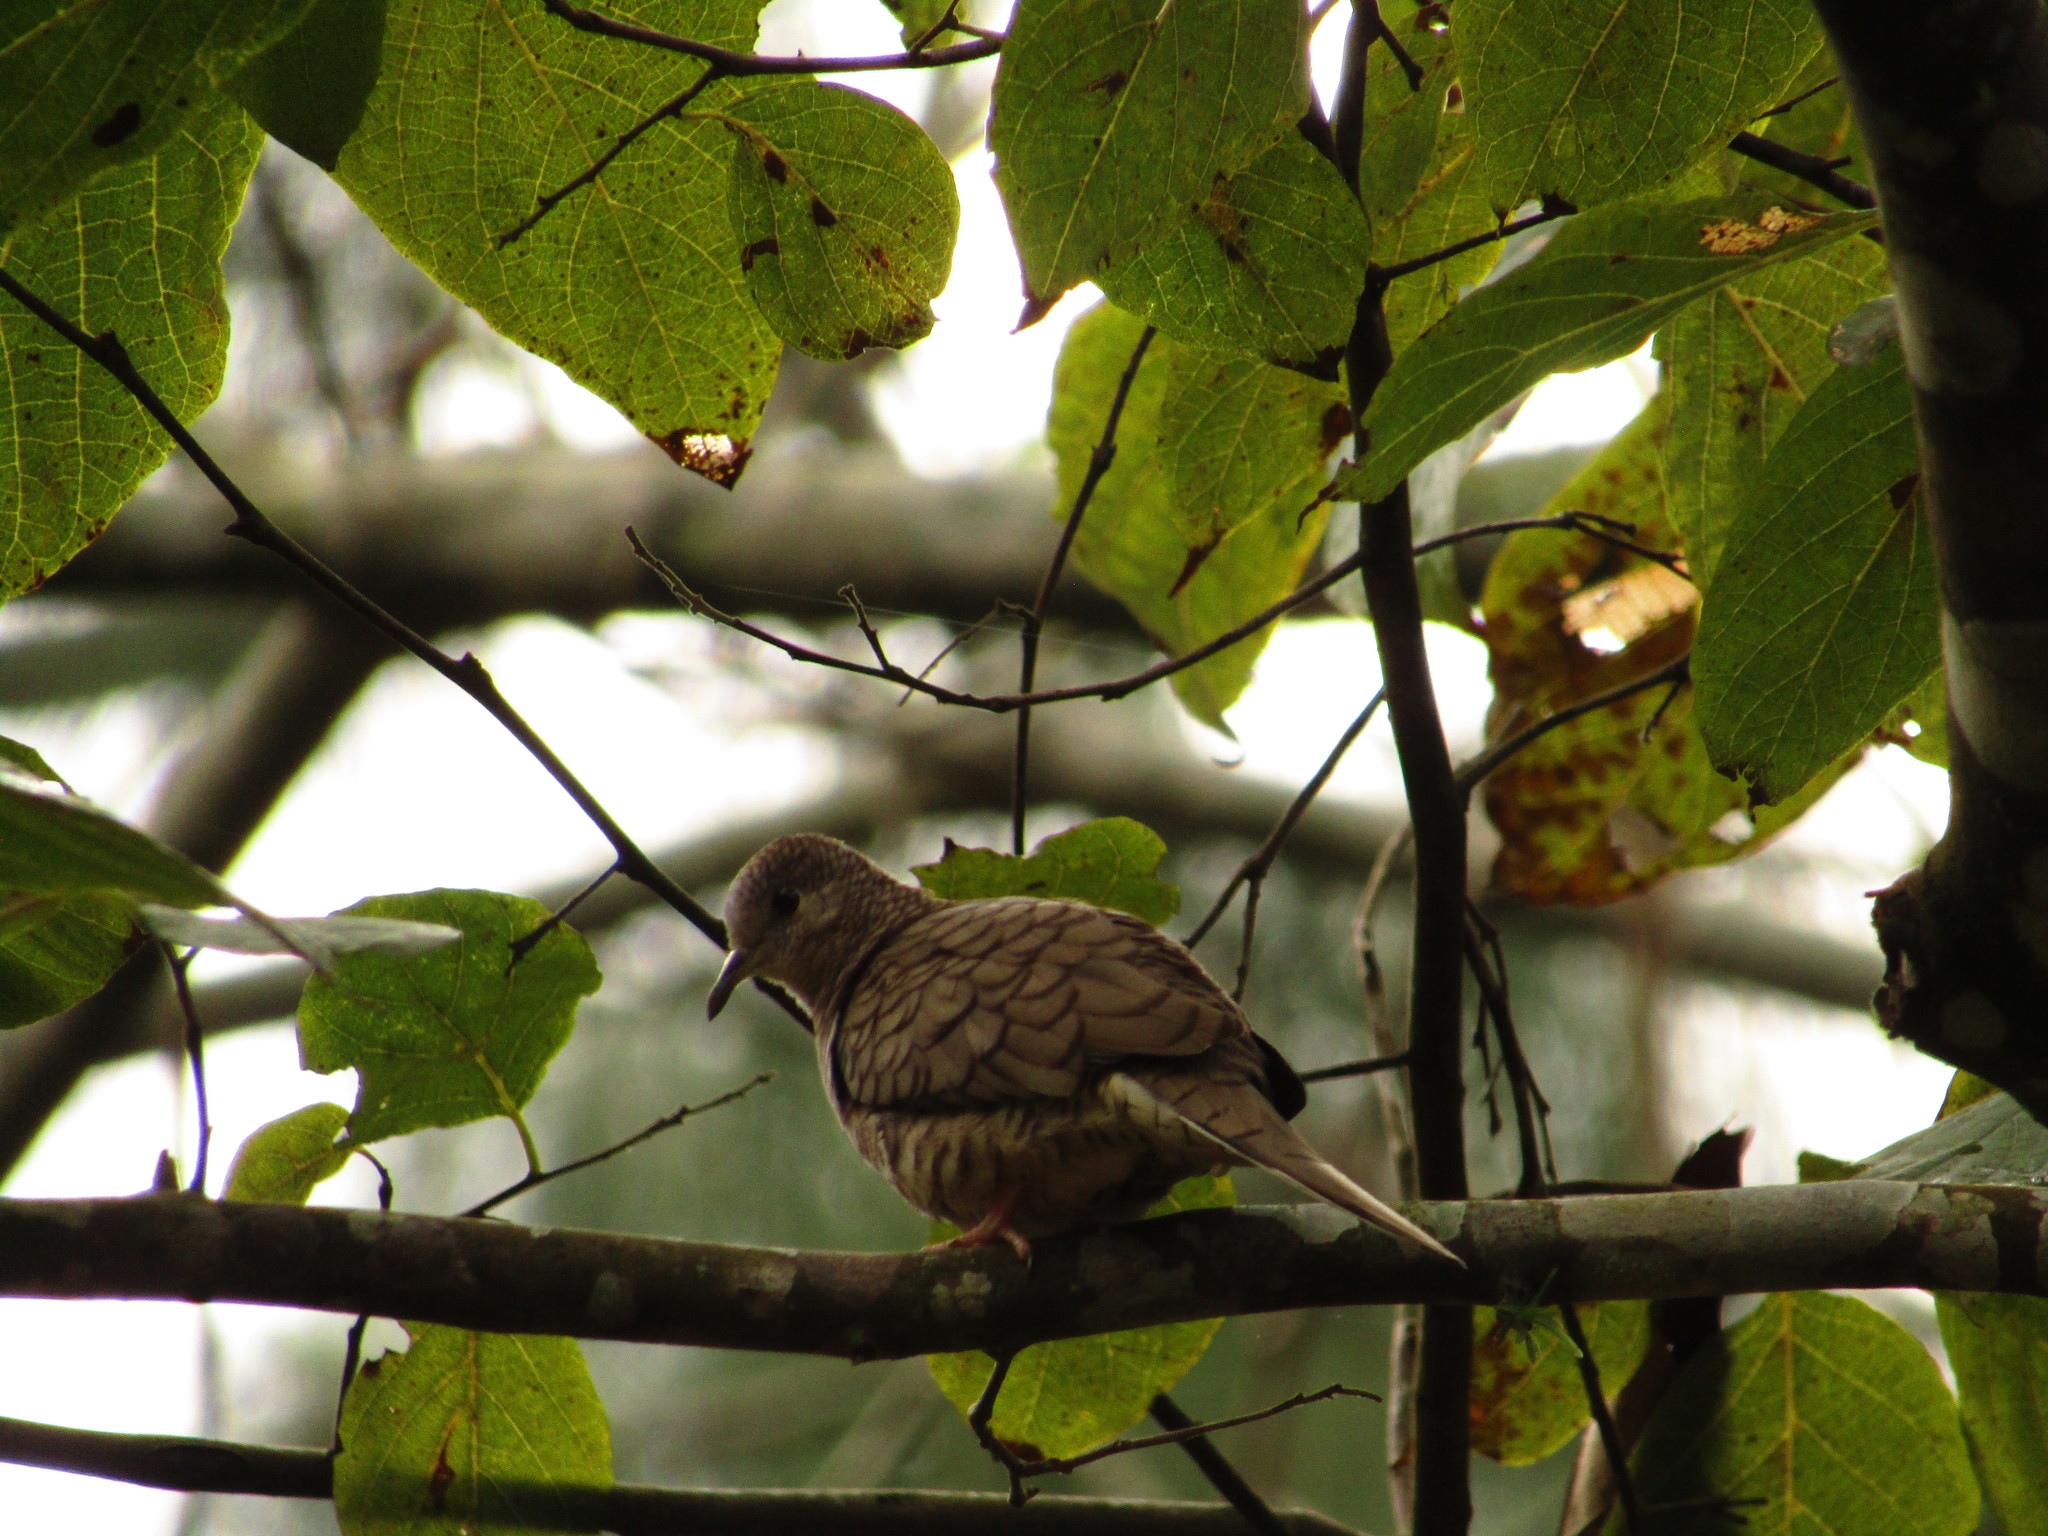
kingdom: Animalia
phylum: Chordata
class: Aves
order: Columbiformes
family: Columbidae
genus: Columbina
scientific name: Columbina inca
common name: Inca dove
